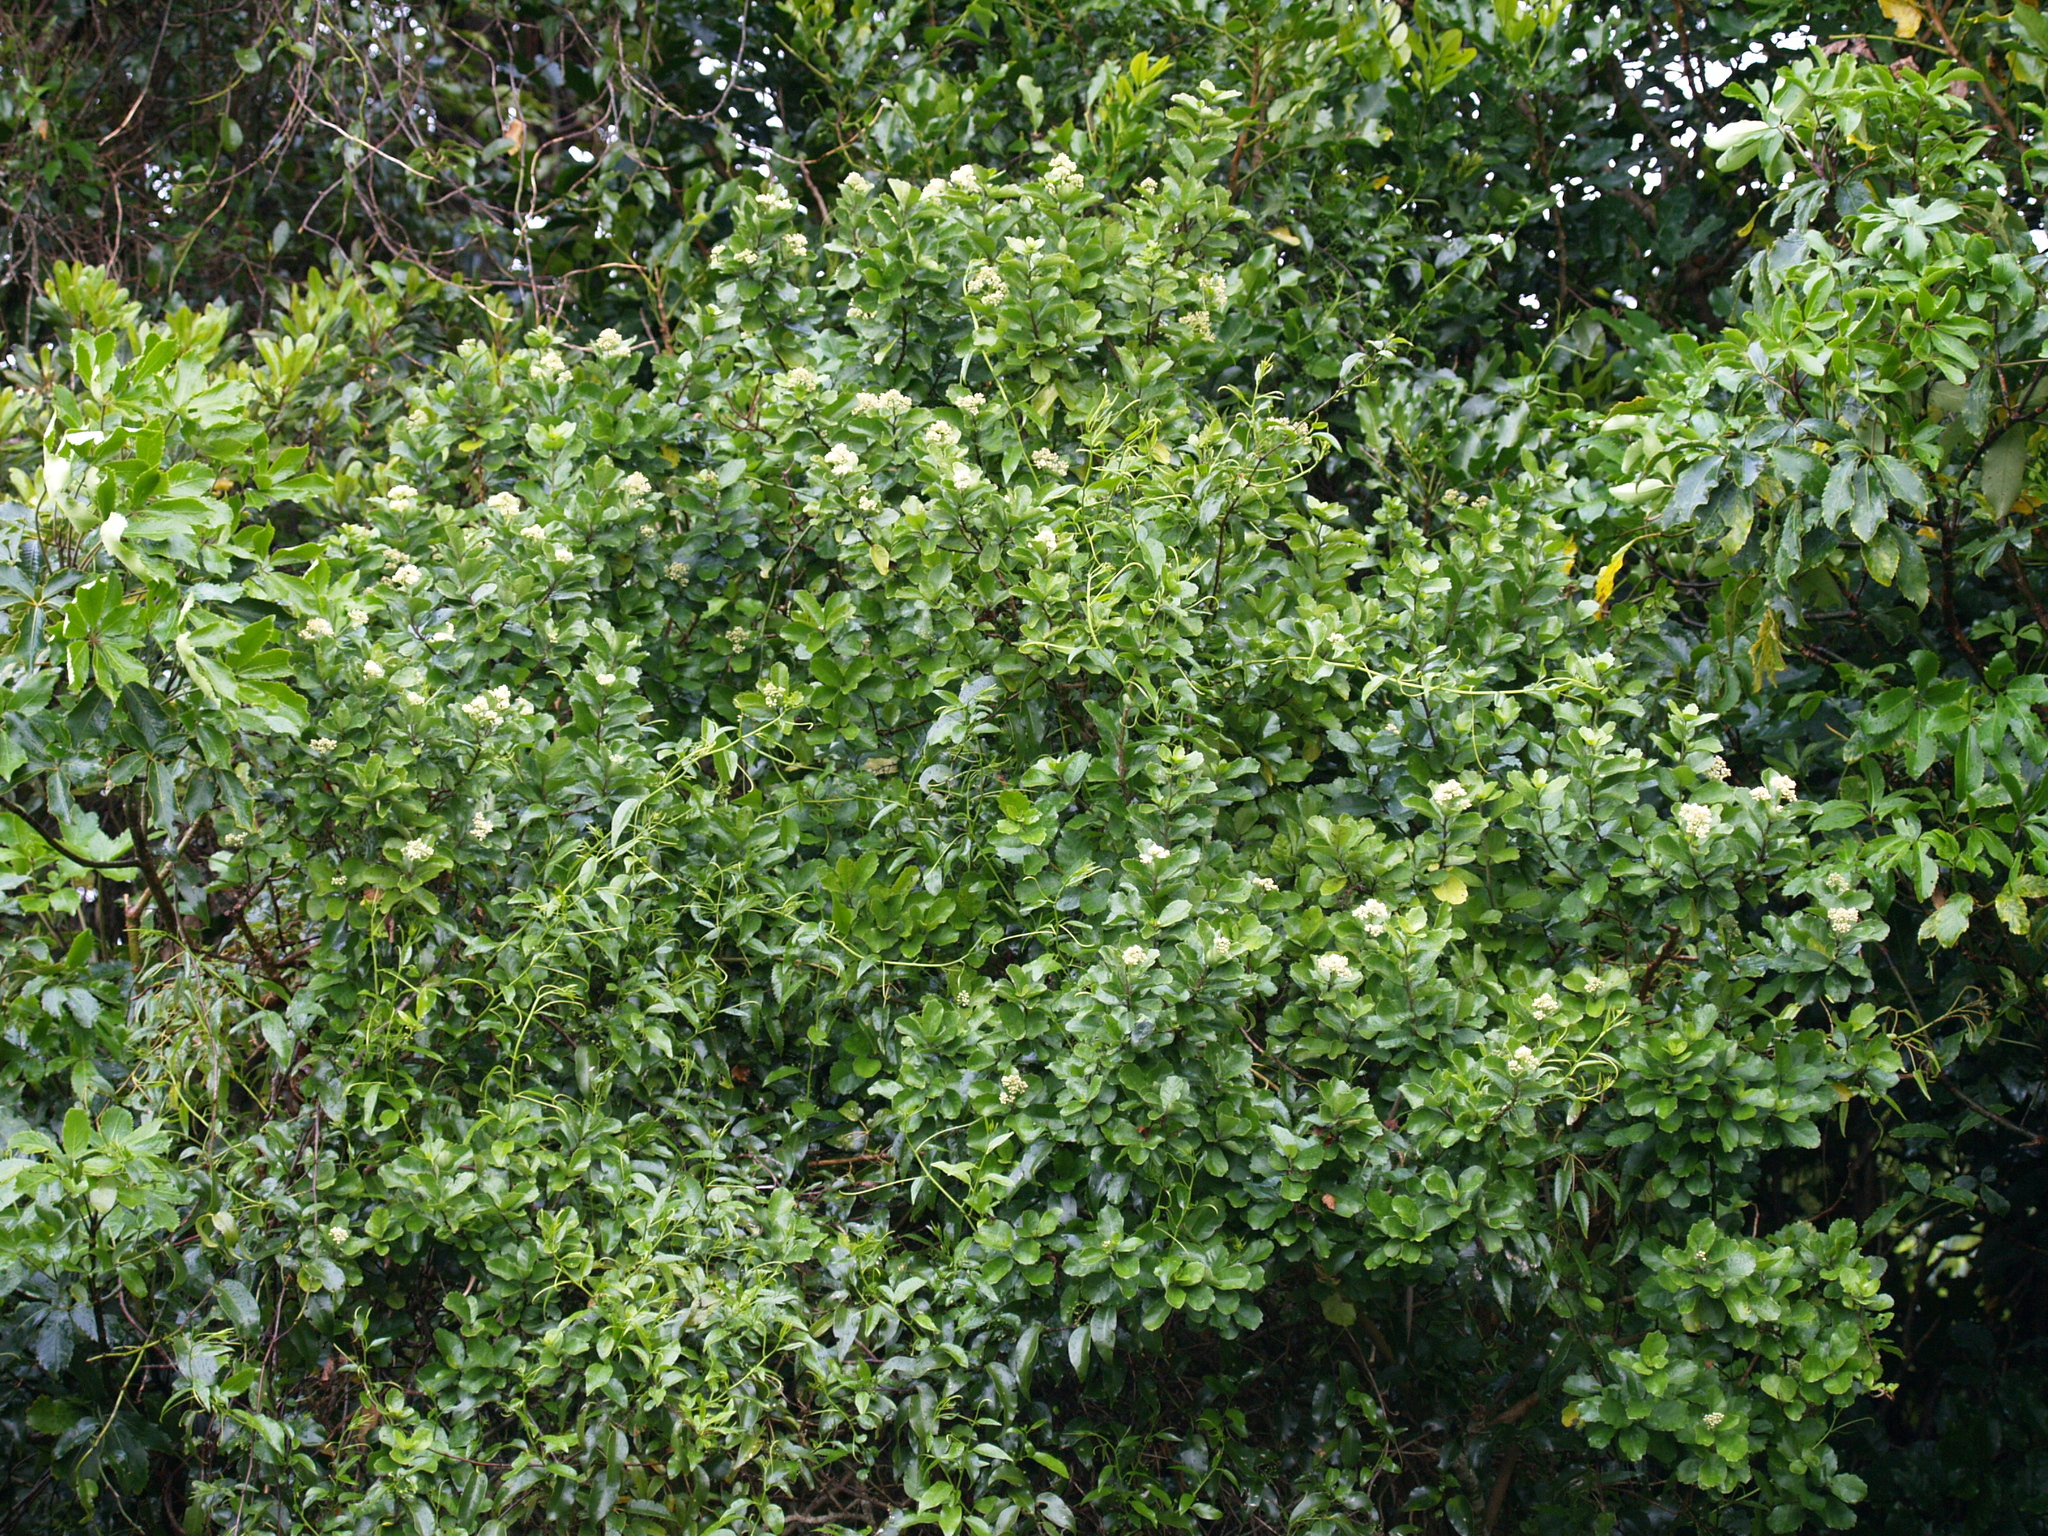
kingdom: Plantae
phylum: Tracheophyta
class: Magnoliopsida
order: Apiales
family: Pennantiaceae
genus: Pennantia
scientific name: Pennantia corymbosa
